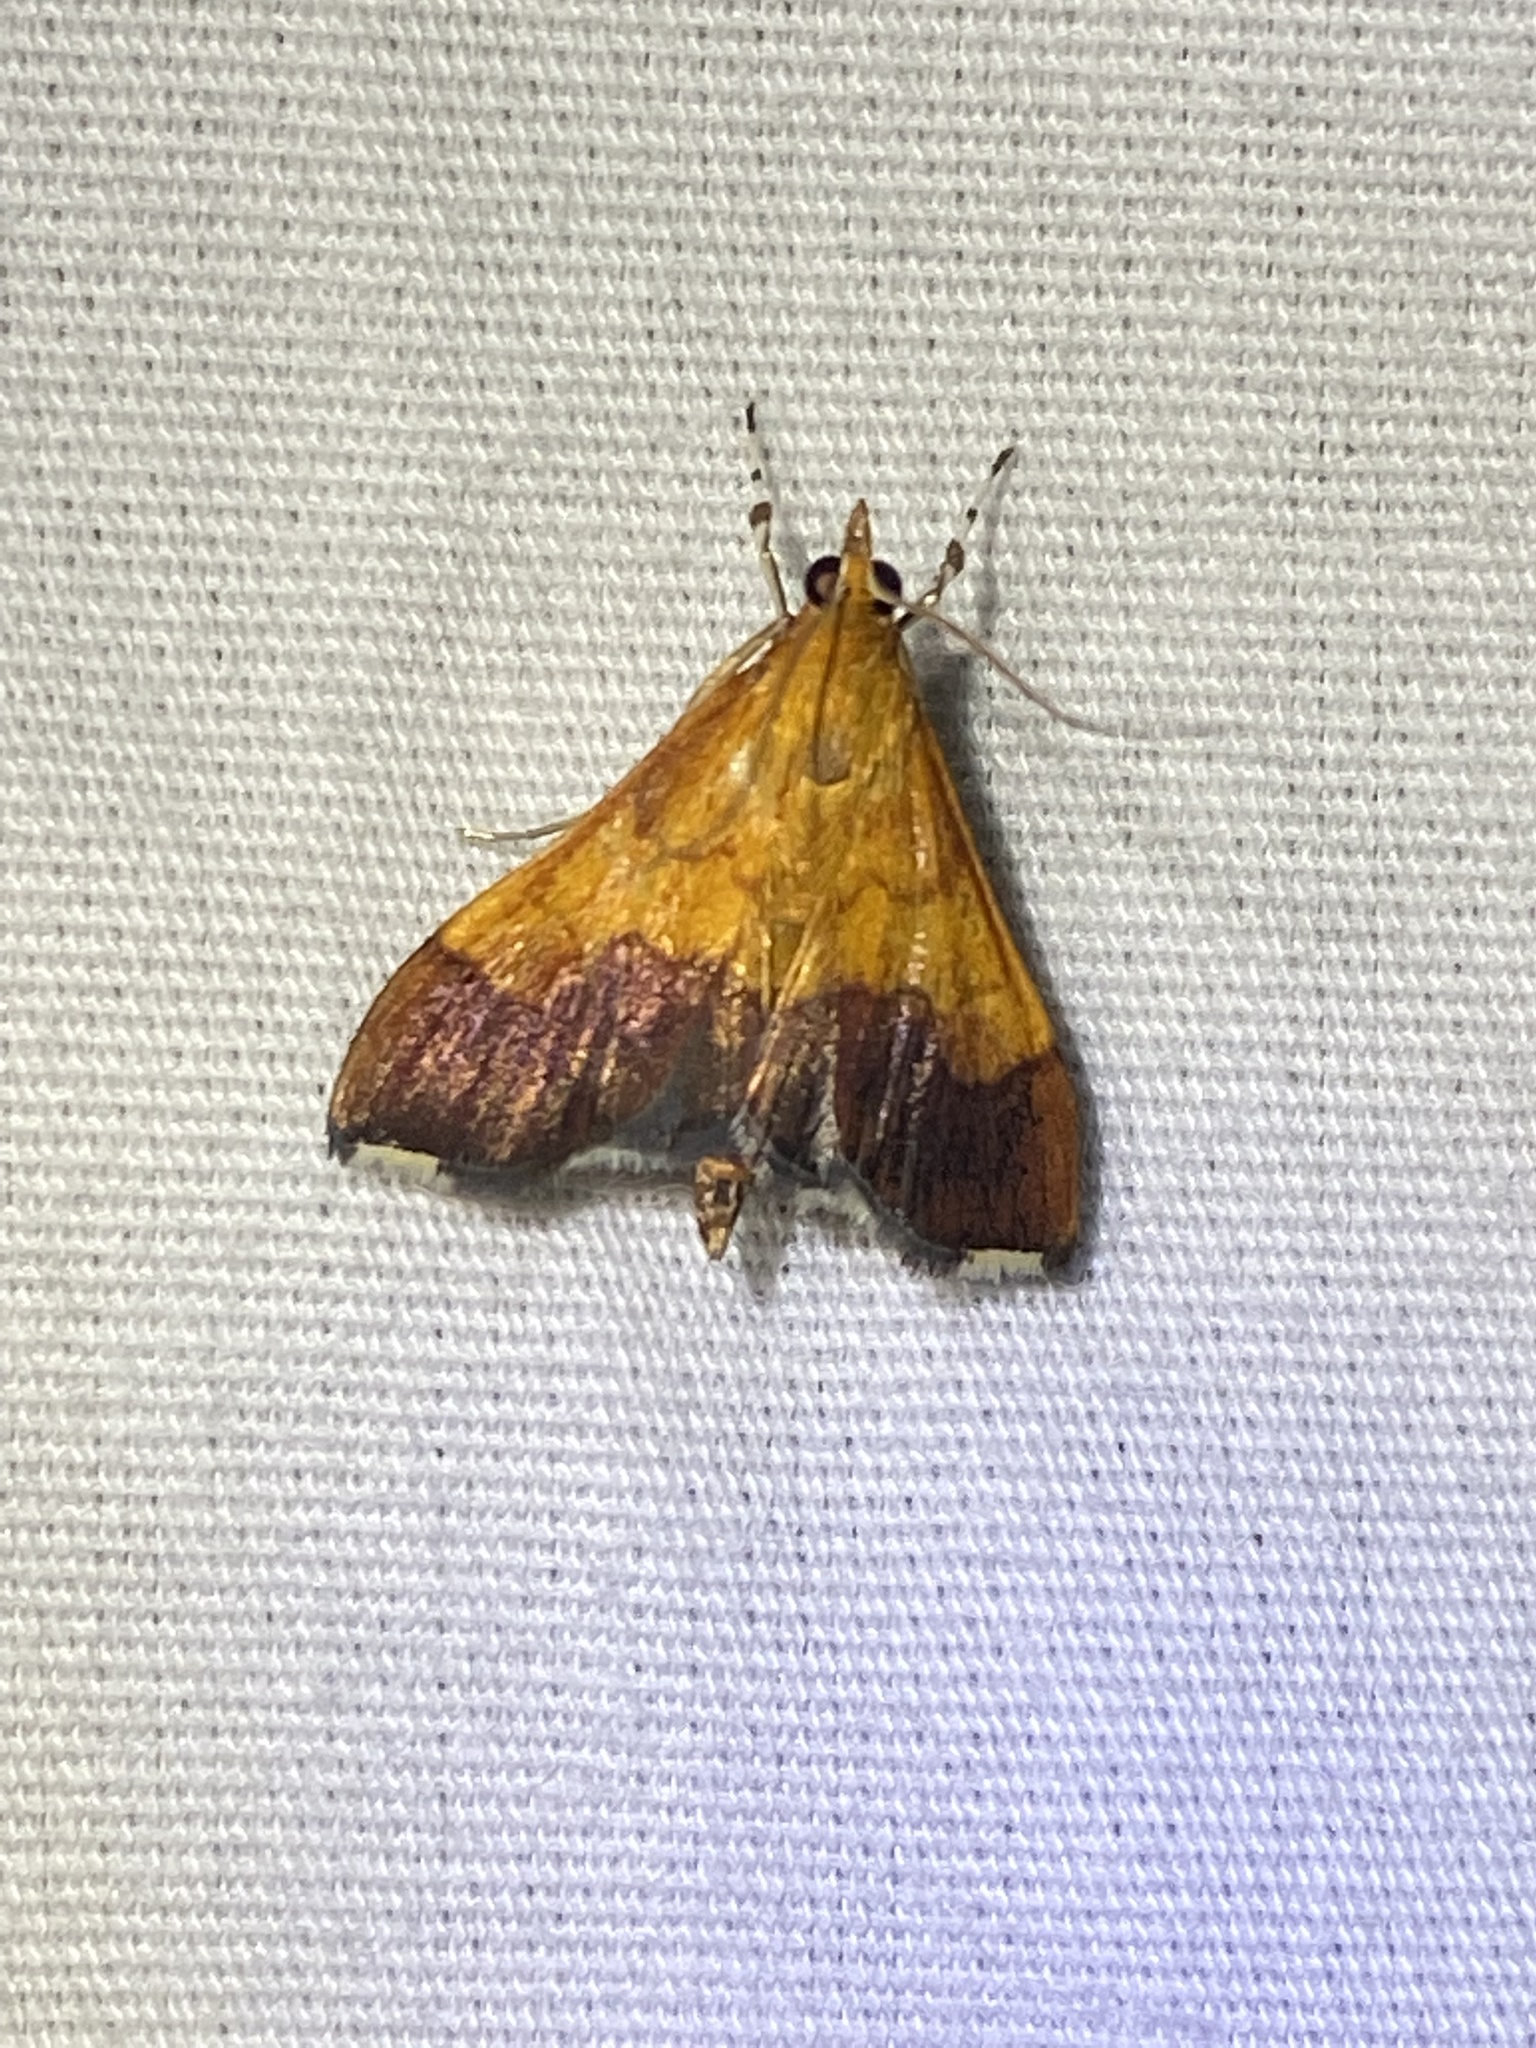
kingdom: Animalia
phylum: Arthropoda
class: Insecta
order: Lepidoptera
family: Crambidae
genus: Pyrausta
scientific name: Pyrausta bicoloralis
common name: Bicolored pyrausta moth
